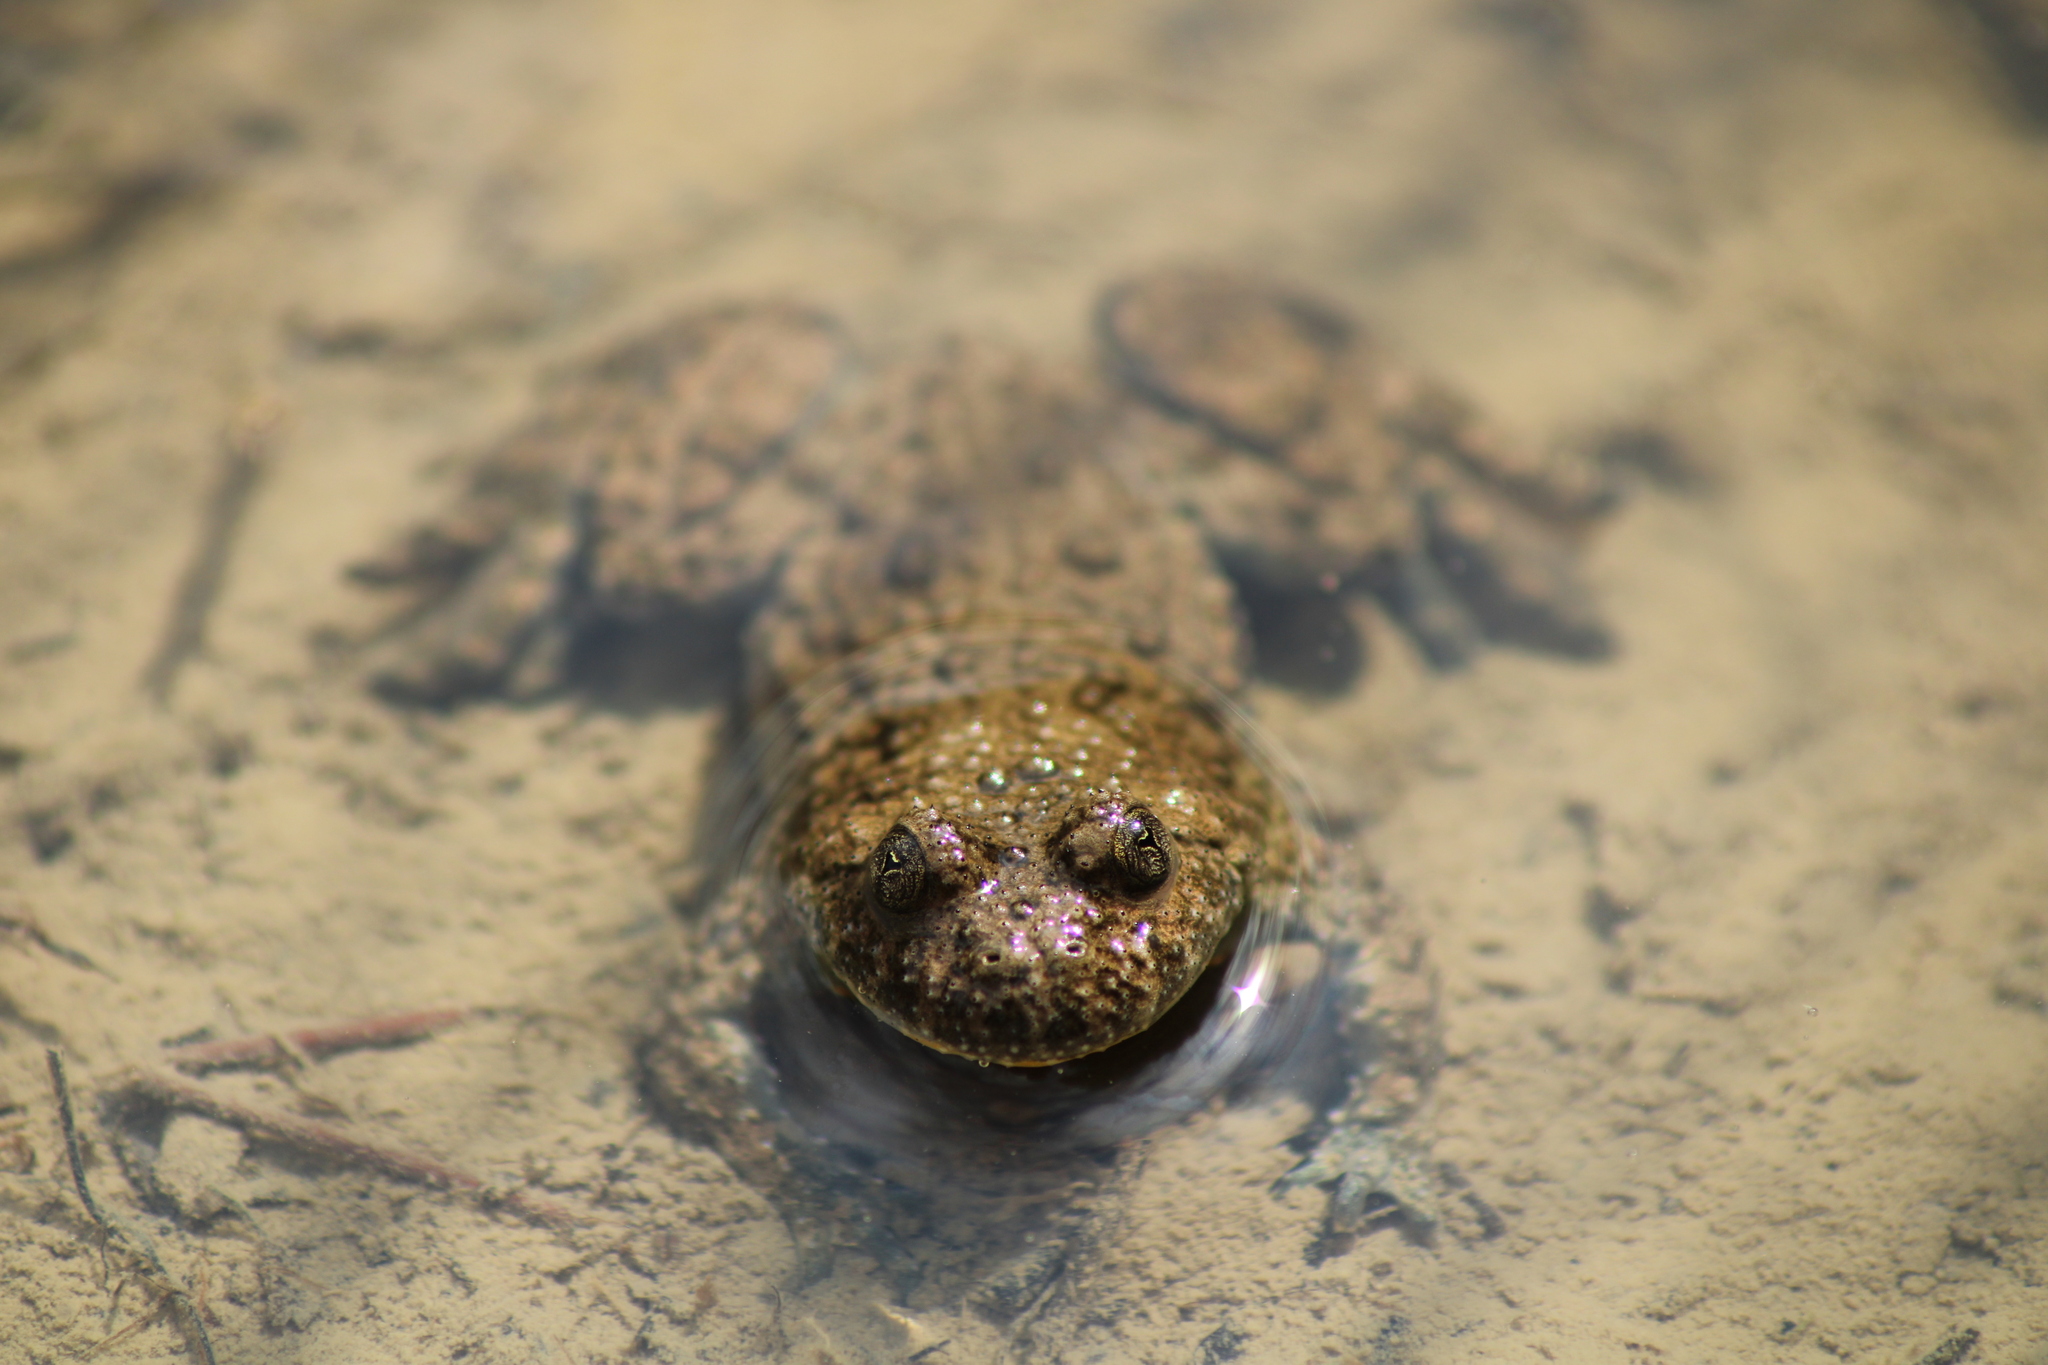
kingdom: Animalia
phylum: Chordata
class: Amphibia
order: Anura
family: Bombinatoridae
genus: Bombina
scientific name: Bombina variegata
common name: Yellow-bellied toad
